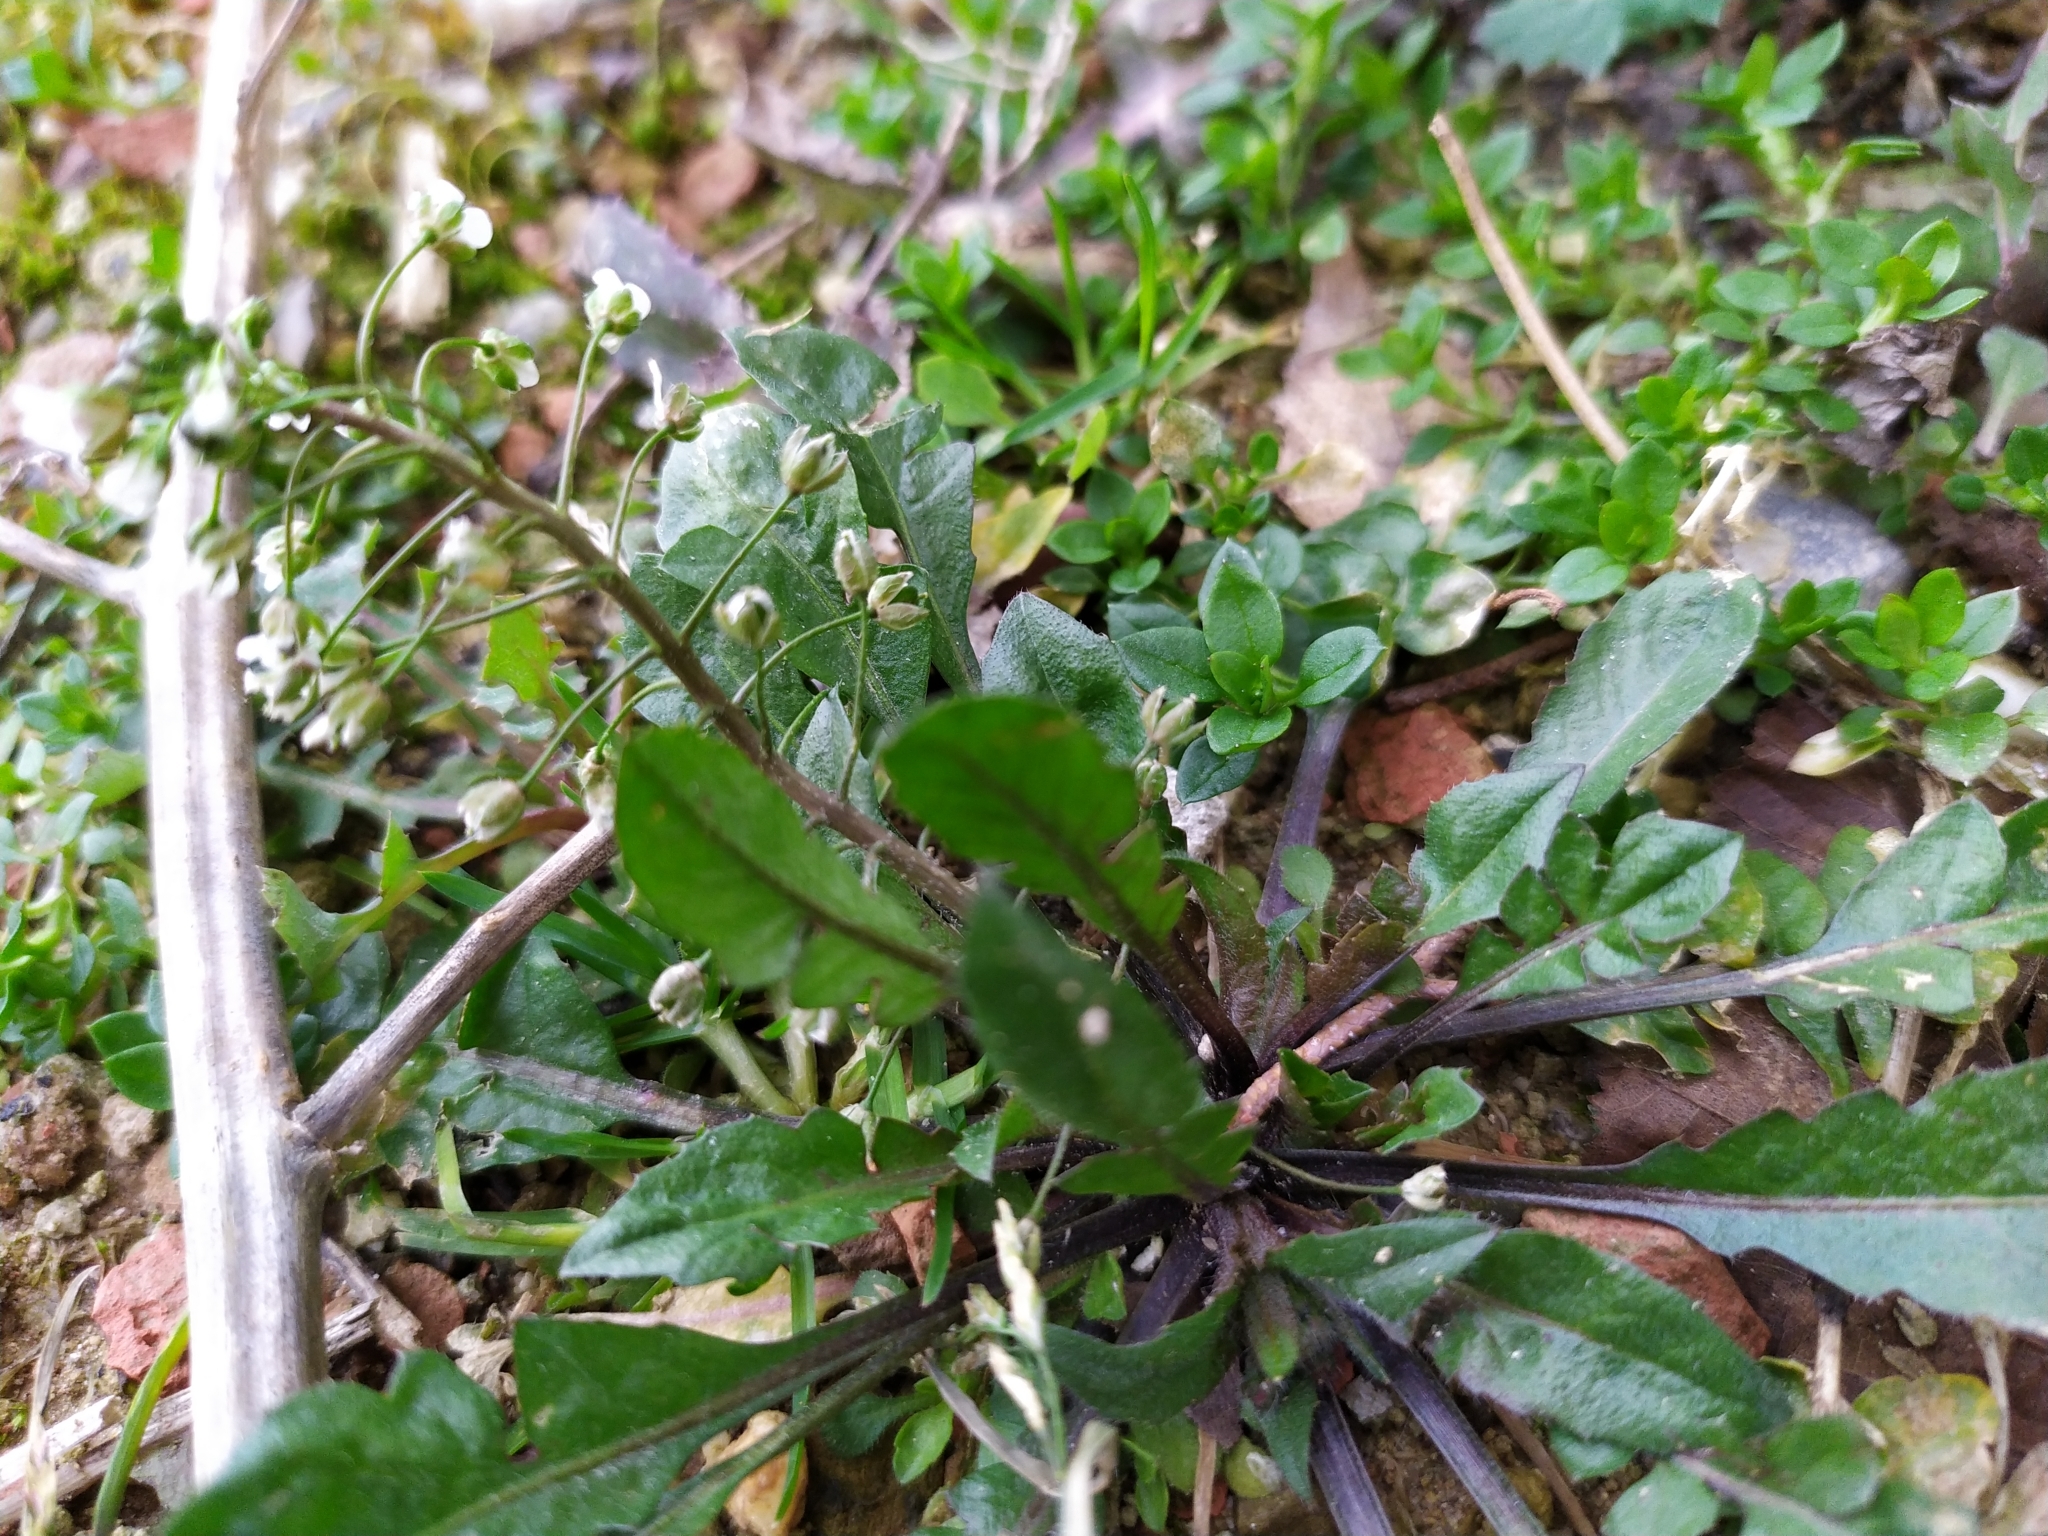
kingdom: Plantae
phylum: Tracheophyta
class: Magnoliopsida
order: Brassicales
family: Brassicaceae
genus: Capsella
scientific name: Capsella bursa-pastoris
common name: Shepherd's purse
